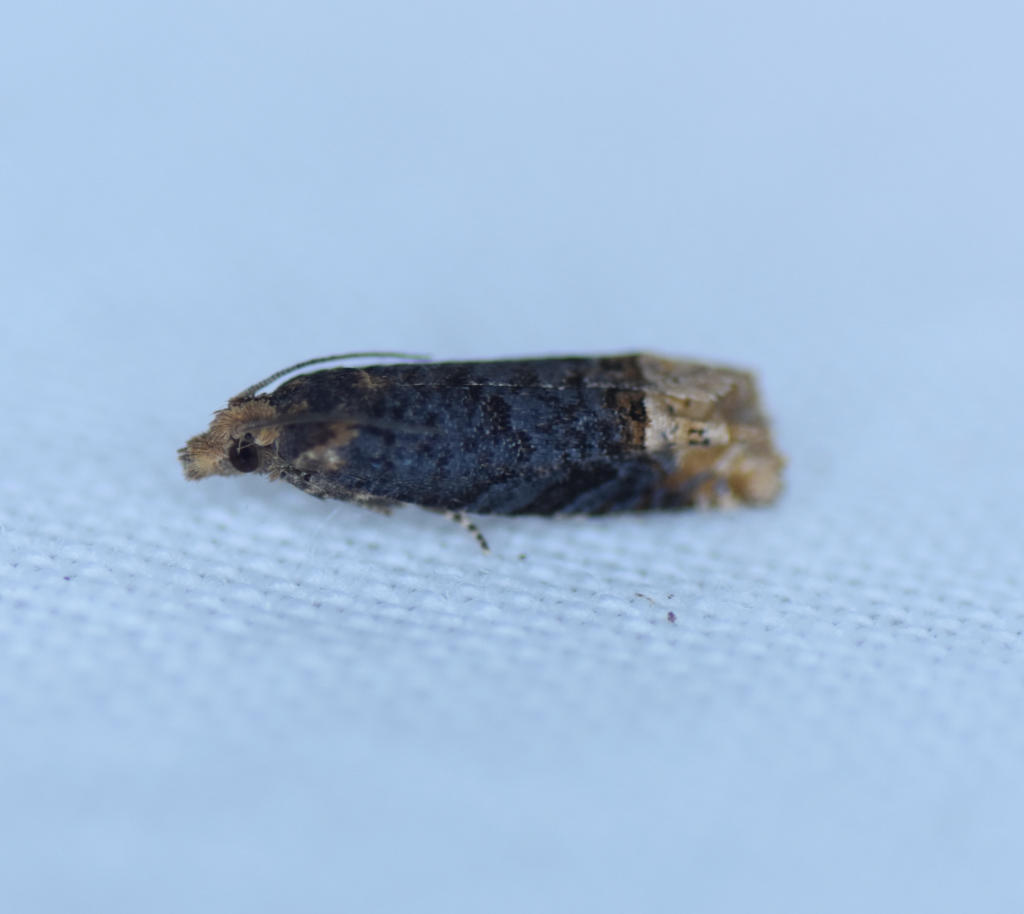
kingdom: Animalia
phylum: Arthropoda
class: Insecta
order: Lepidoptera
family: Tortricidae
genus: Eucosma
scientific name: Eucosma ochroterminana
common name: Buff-tipped eucosma moth
